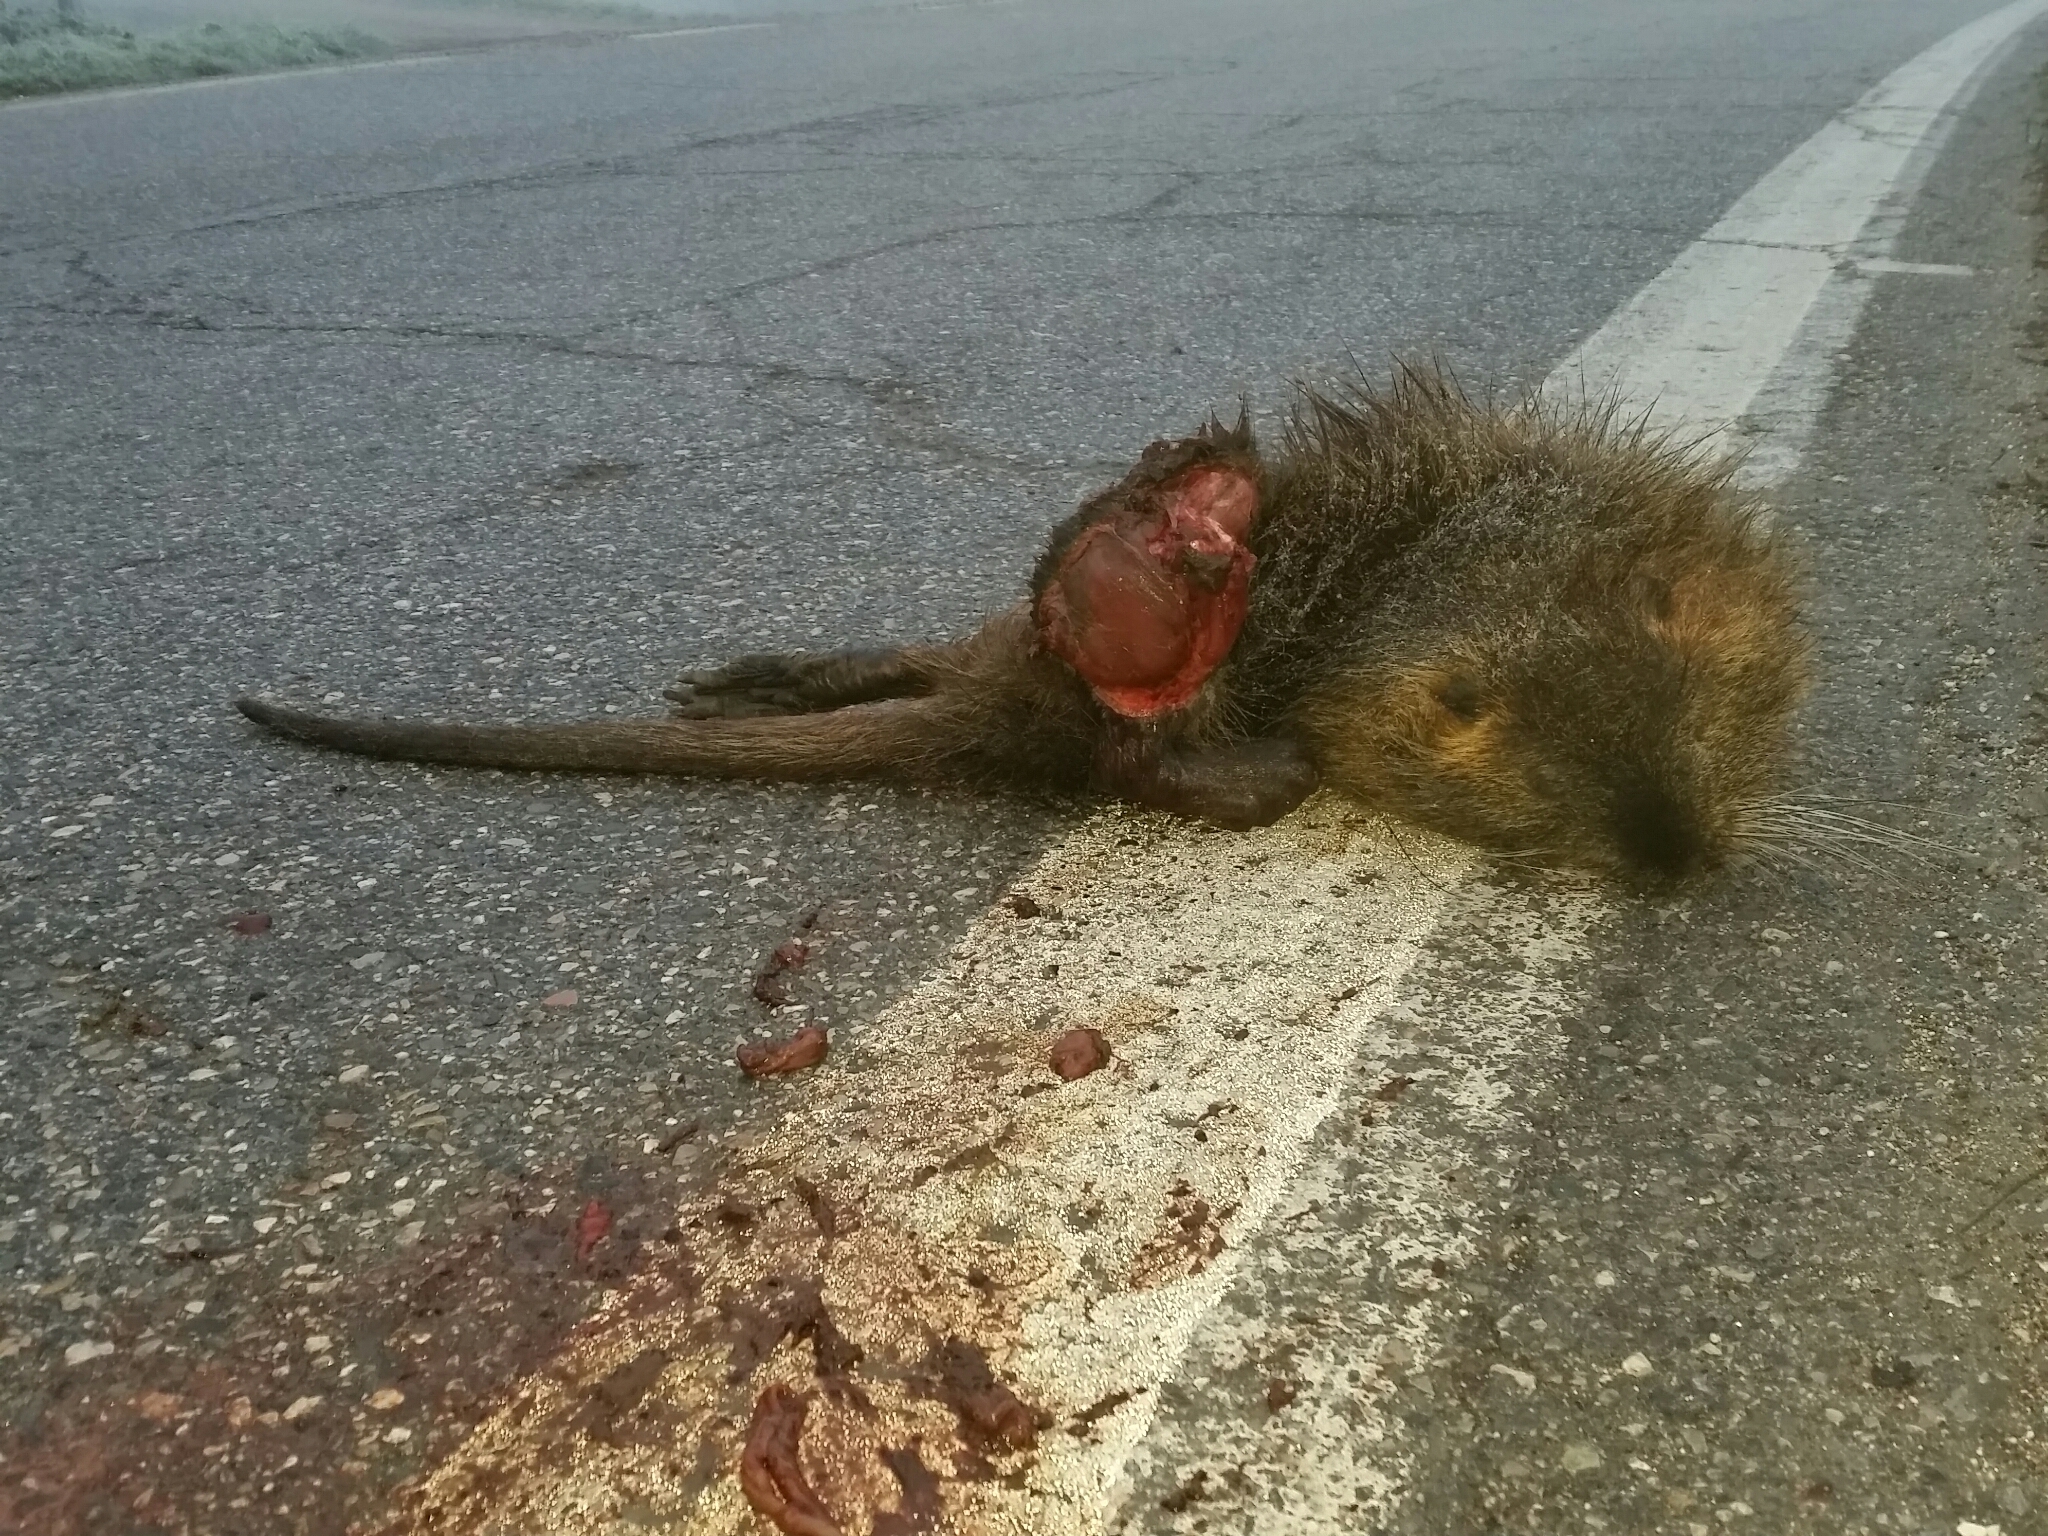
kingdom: Animalia
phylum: Chordata
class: Mammalia
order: Rodentia
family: Myocastoridae
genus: Myocastor
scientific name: Myocastor coypus
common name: Coypu
